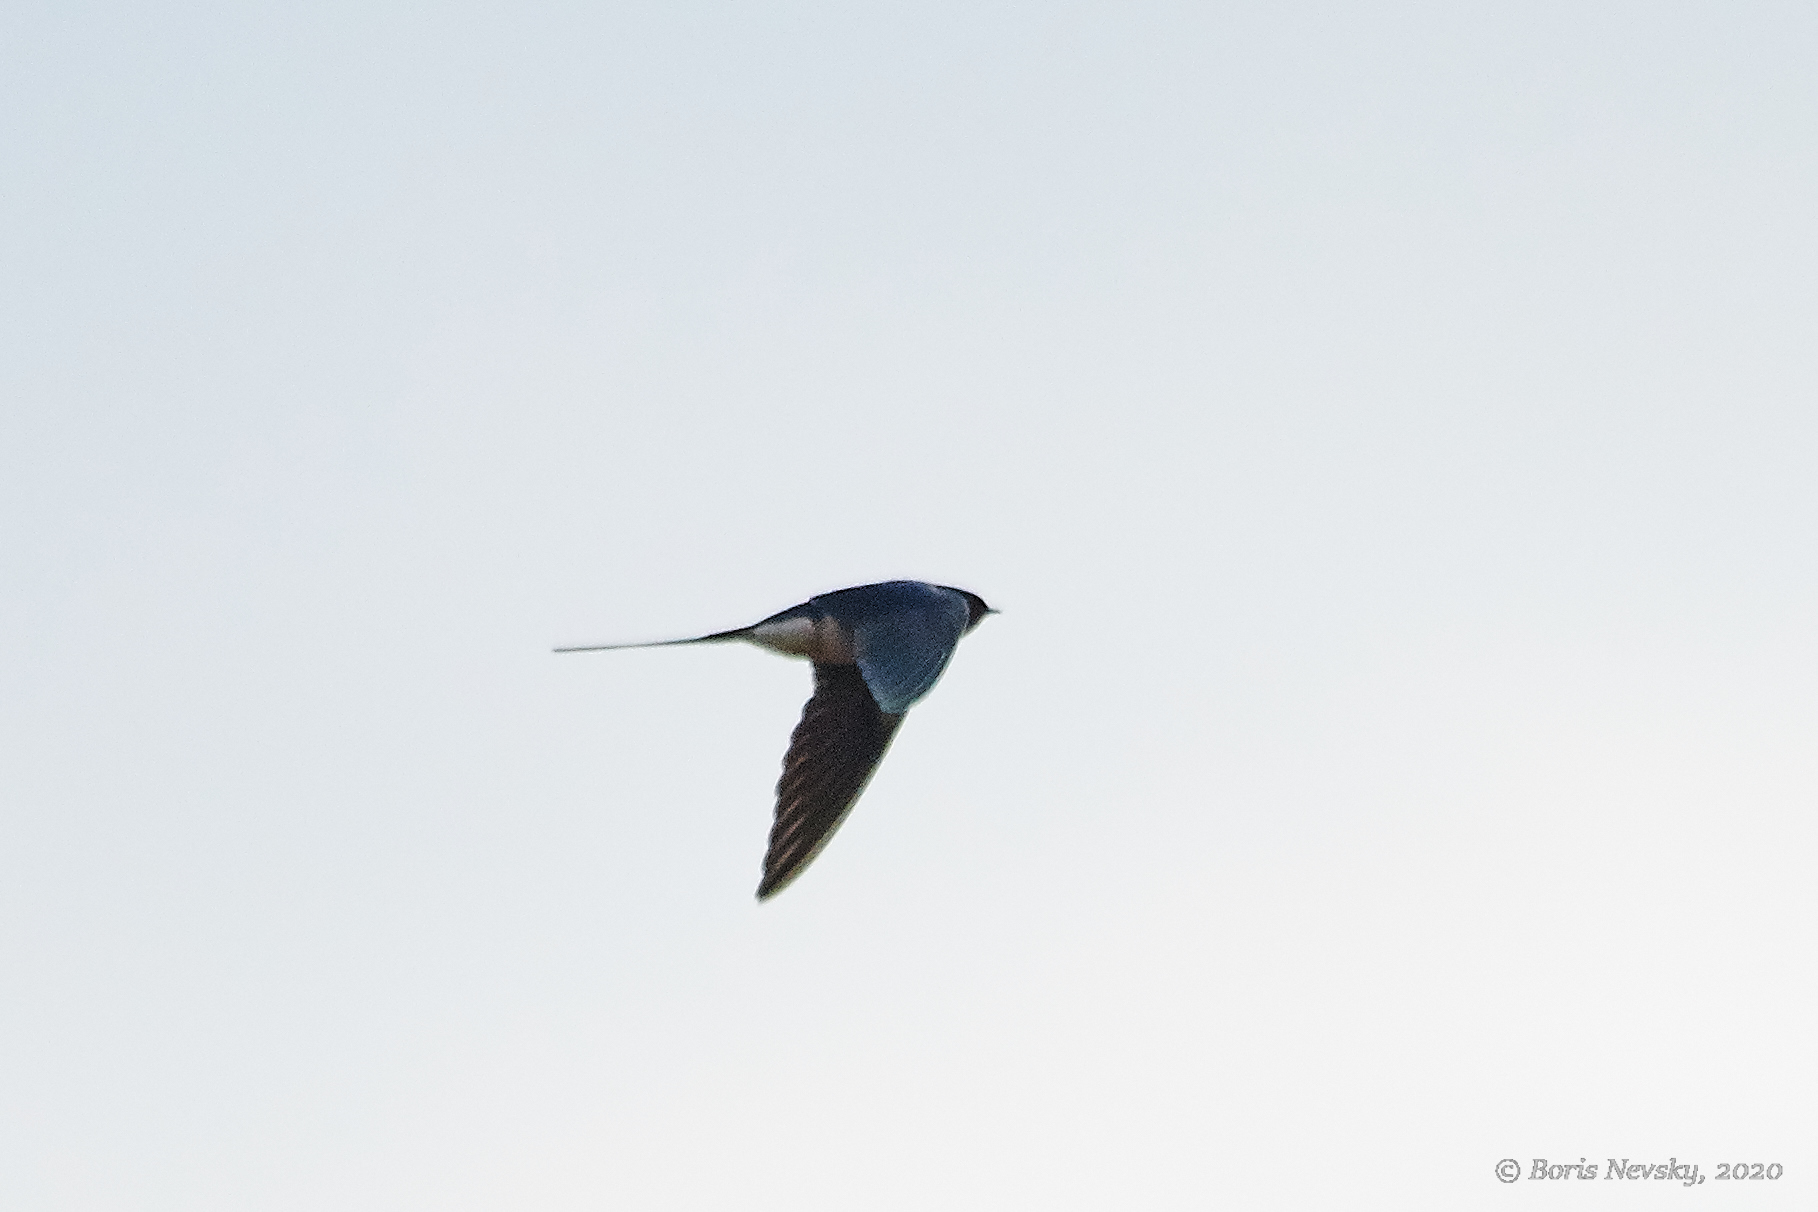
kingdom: Animalia
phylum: Chordata
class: Aves
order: Passeriformes
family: Hirundinidae
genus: Hirundo
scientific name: Hirundo rustica
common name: Barn swallow
